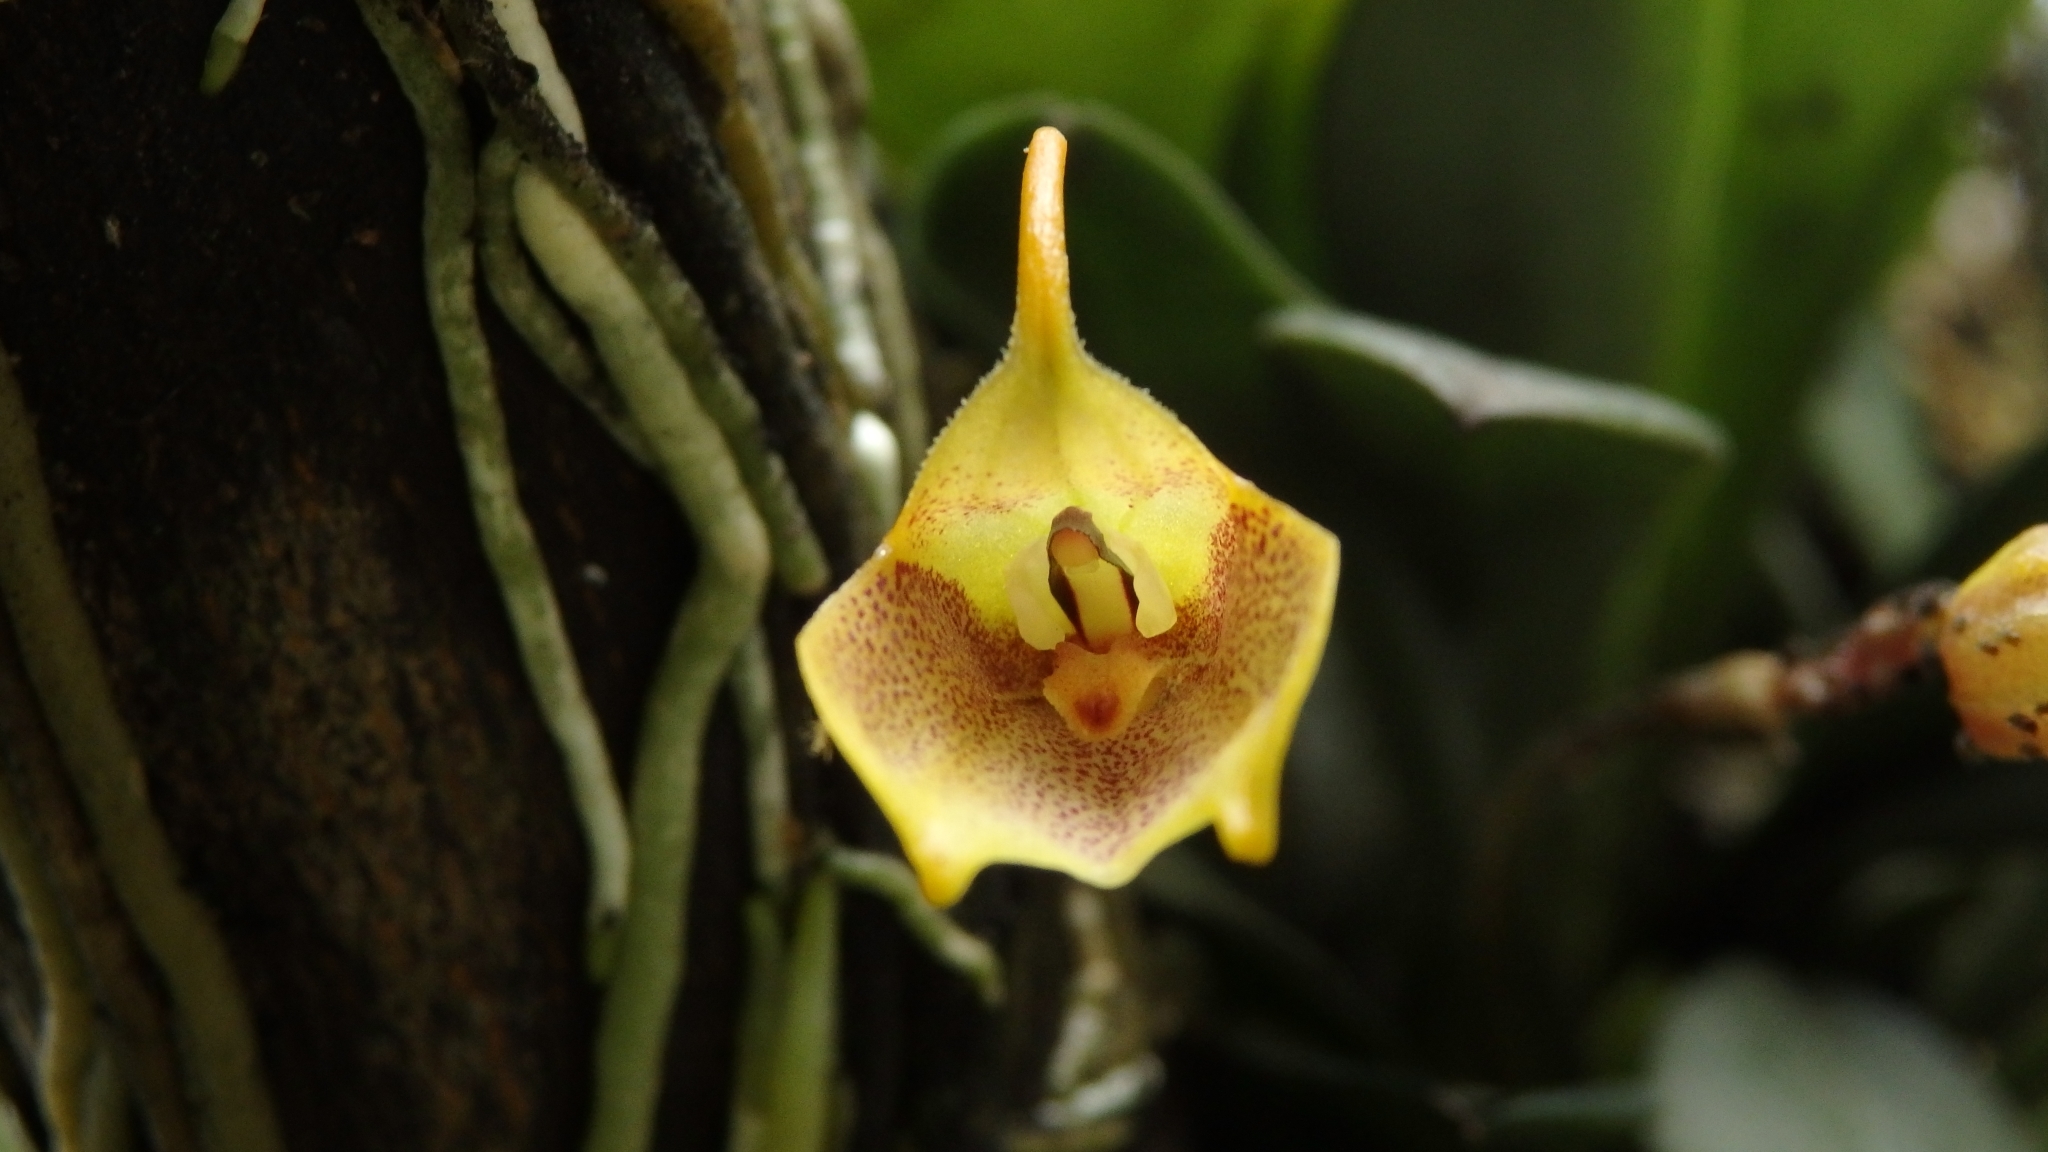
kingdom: Plantae
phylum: Tracheophyta
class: Liliopsida
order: Asparagales
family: Orchidaceae
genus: Masdevallia
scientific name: Masdevallia floribunda
